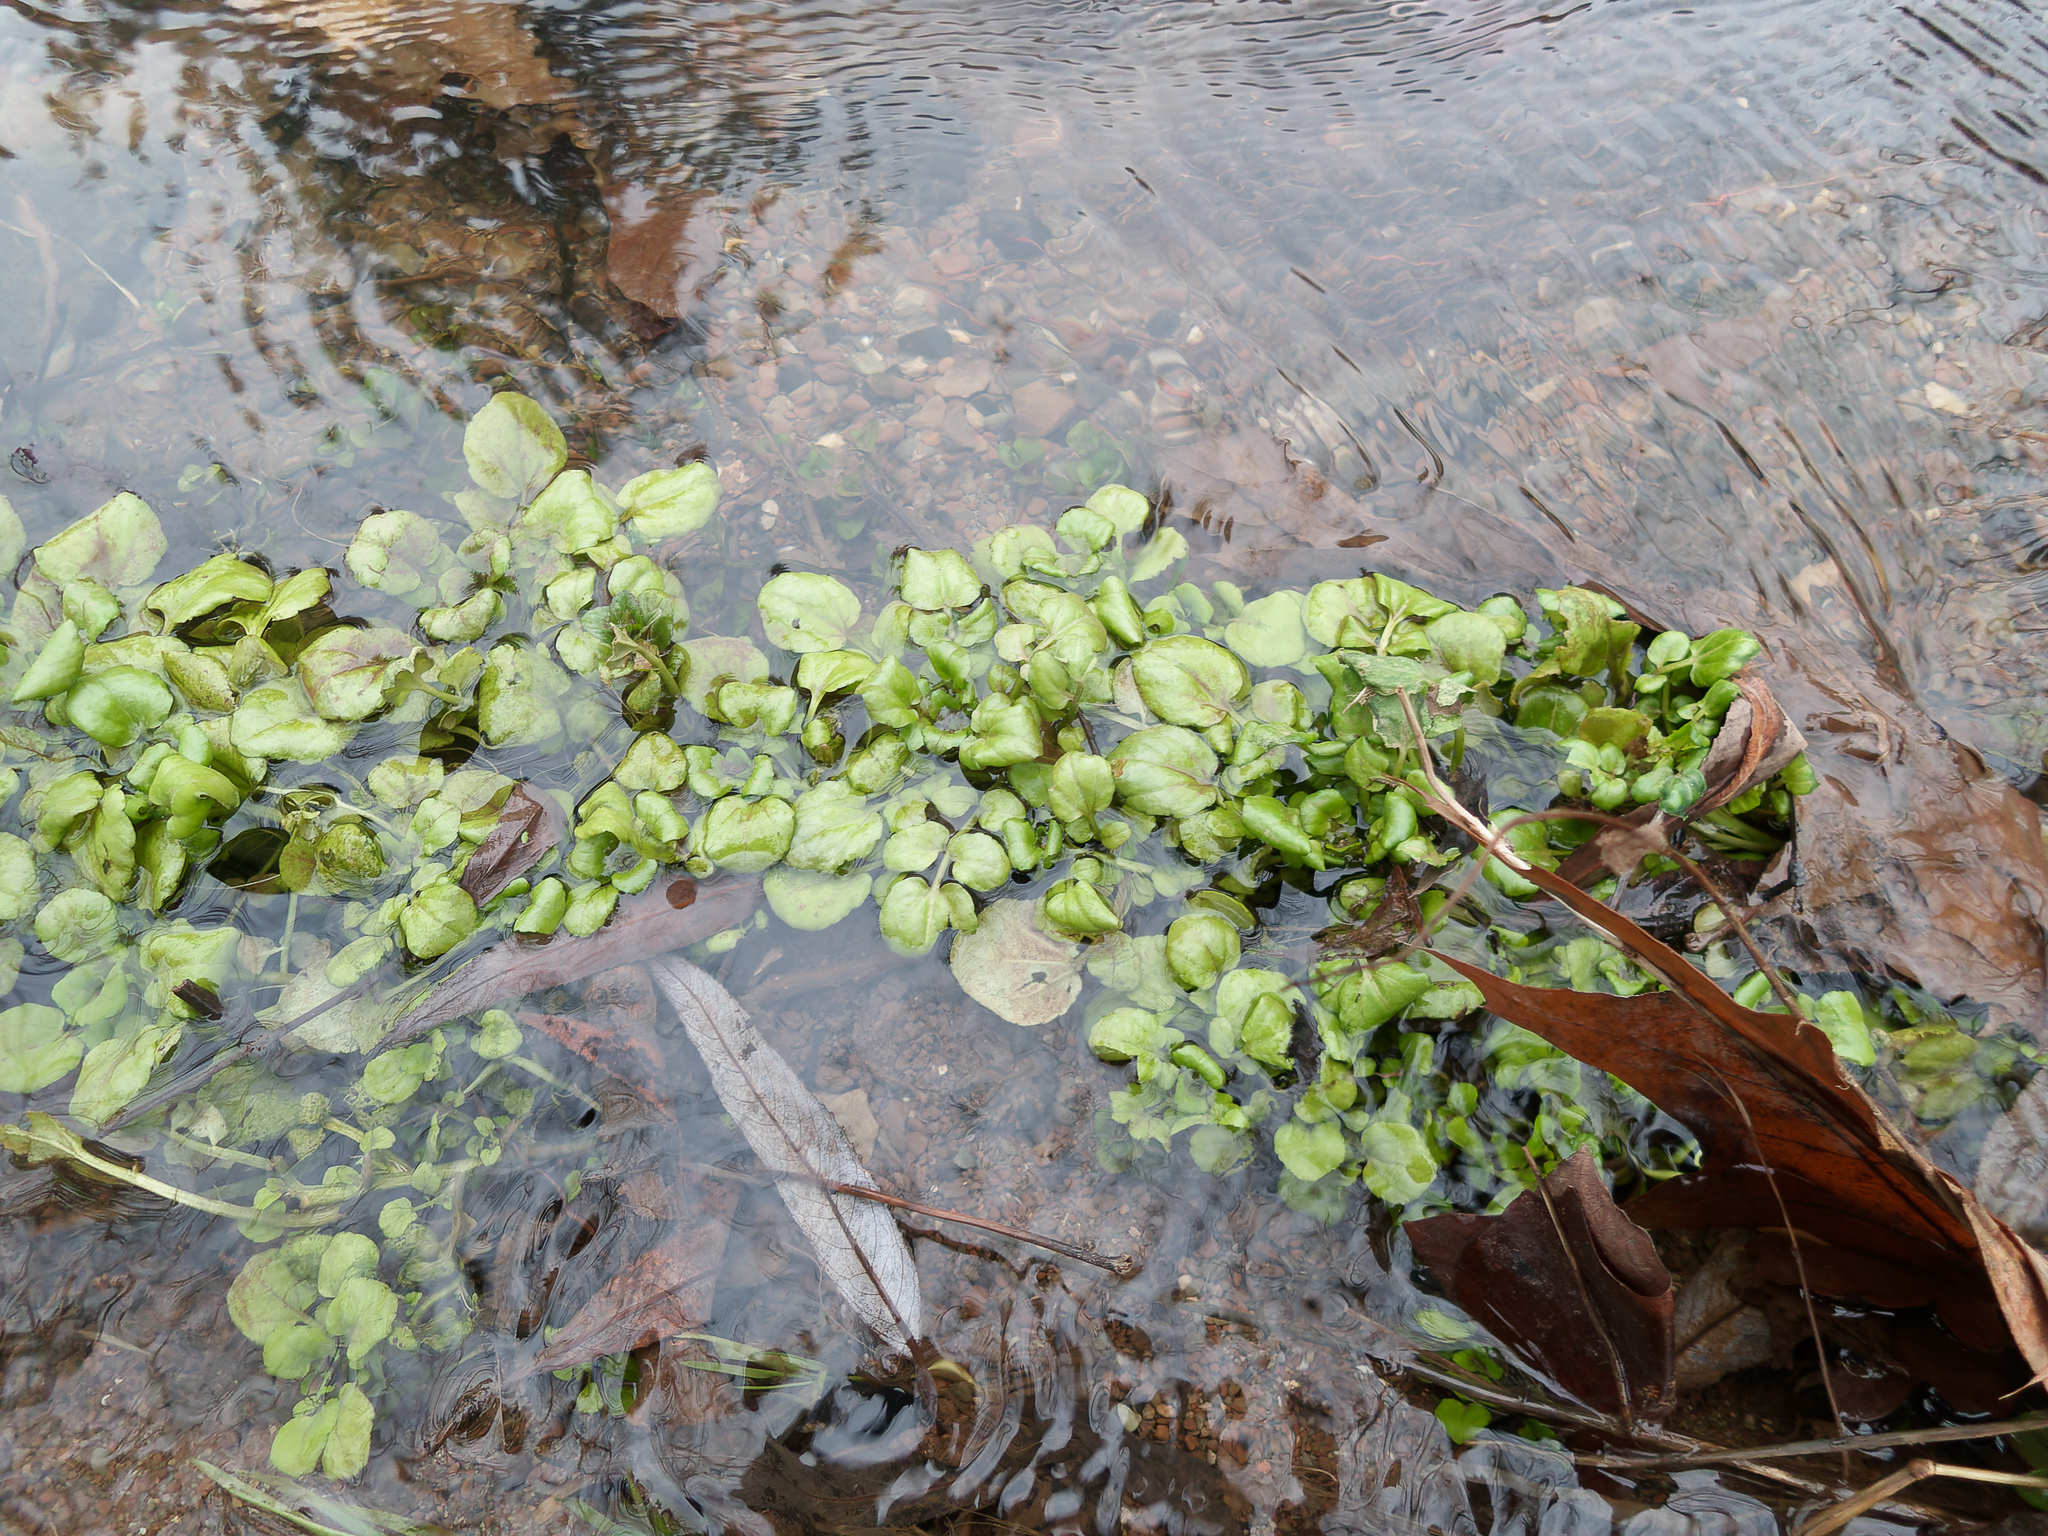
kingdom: Plantae
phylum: Tracheophyta
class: Magnoliopsida
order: Brassicales
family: Brassicaceae
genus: Nasturtium
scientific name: Nasturtium officinale
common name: Watercress
